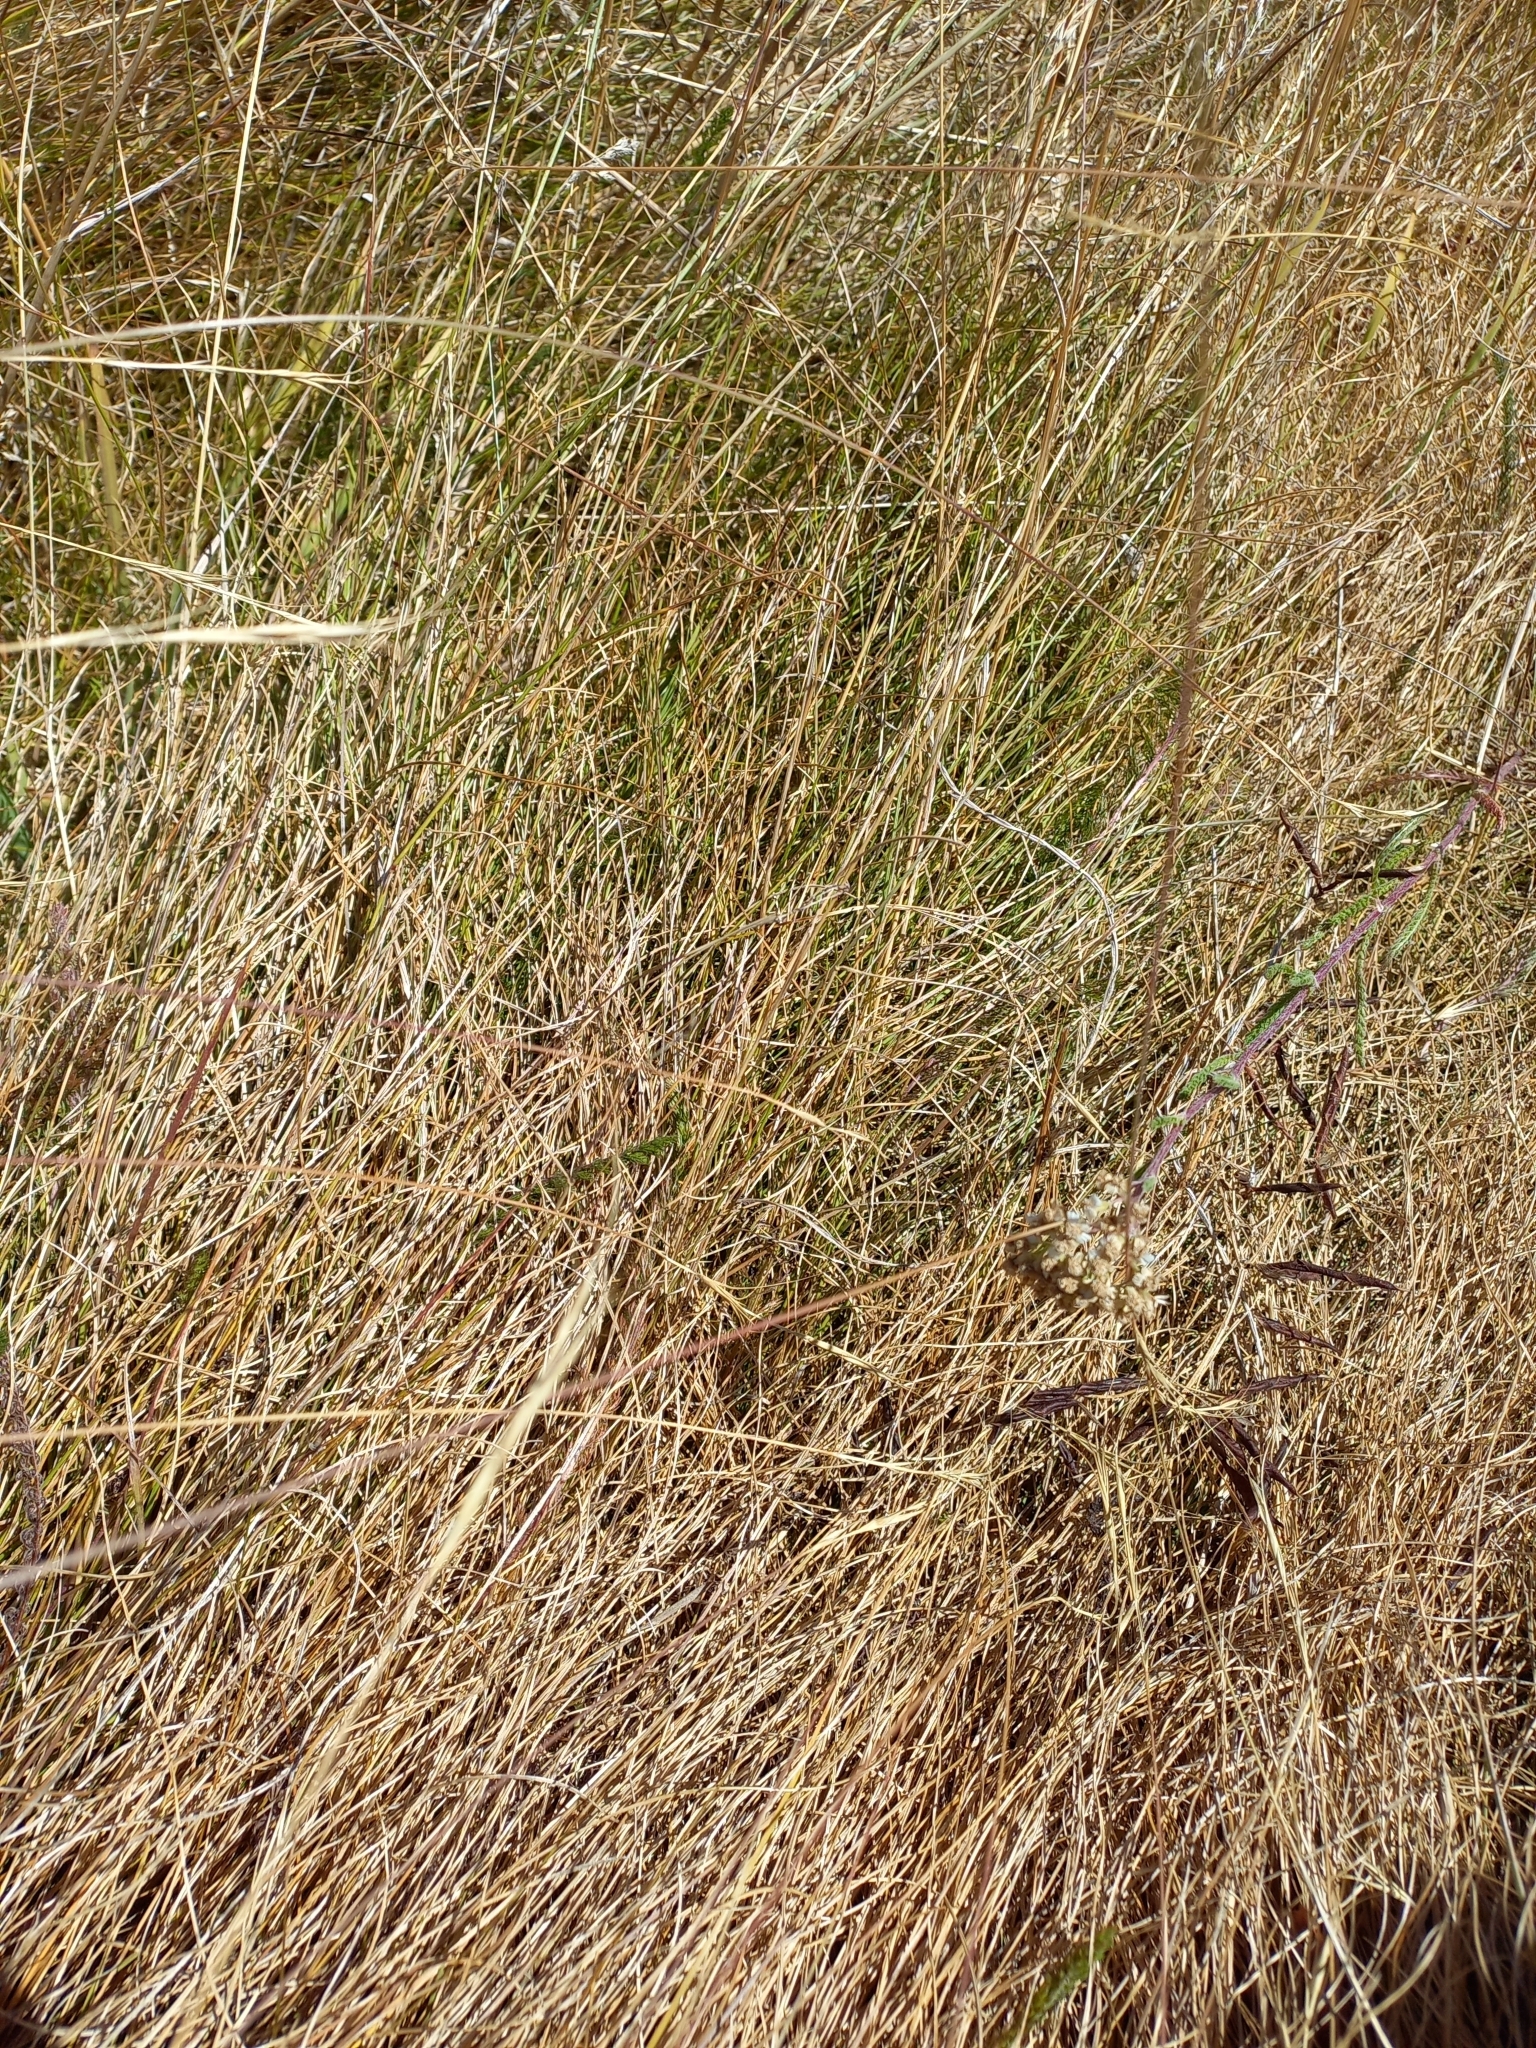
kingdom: Plantae
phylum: Tracheophyta
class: Liliopsida
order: Poales
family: Poaceae
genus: Festuca
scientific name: Festuca rubra
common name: Red fescue
